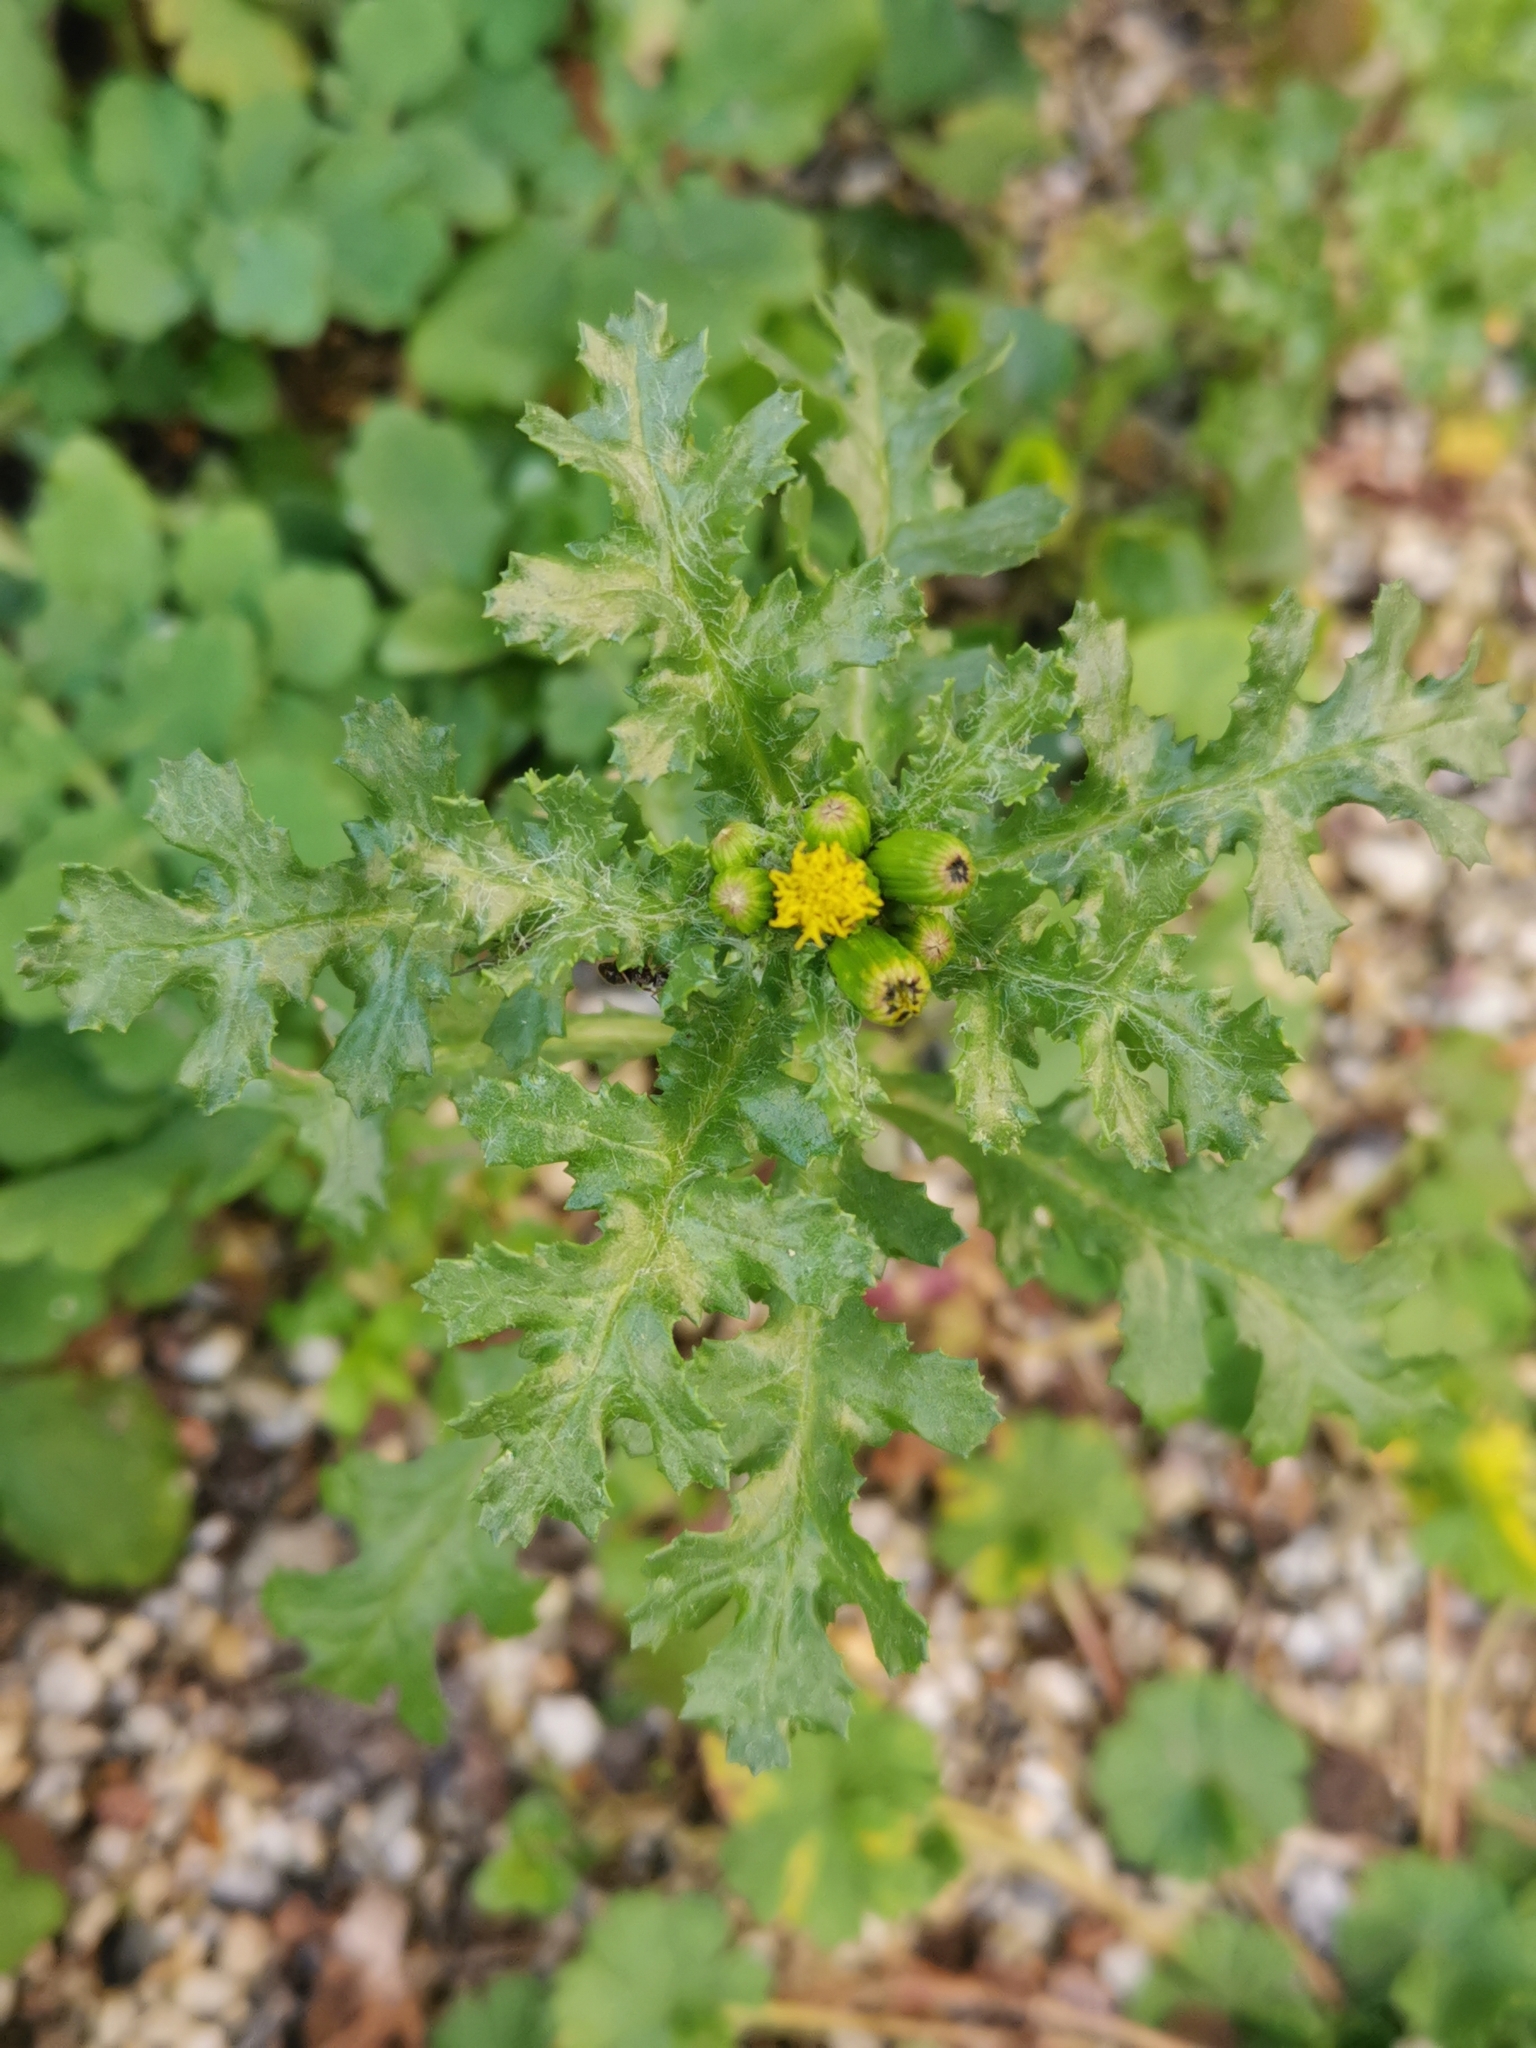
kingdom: Plantae
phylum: Tracheophyta
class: Magnoliopsida
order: Asterales
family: Asteraceae
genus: Senecio
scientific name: Senecio vulgaris
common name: Old-man-in-the-spring
